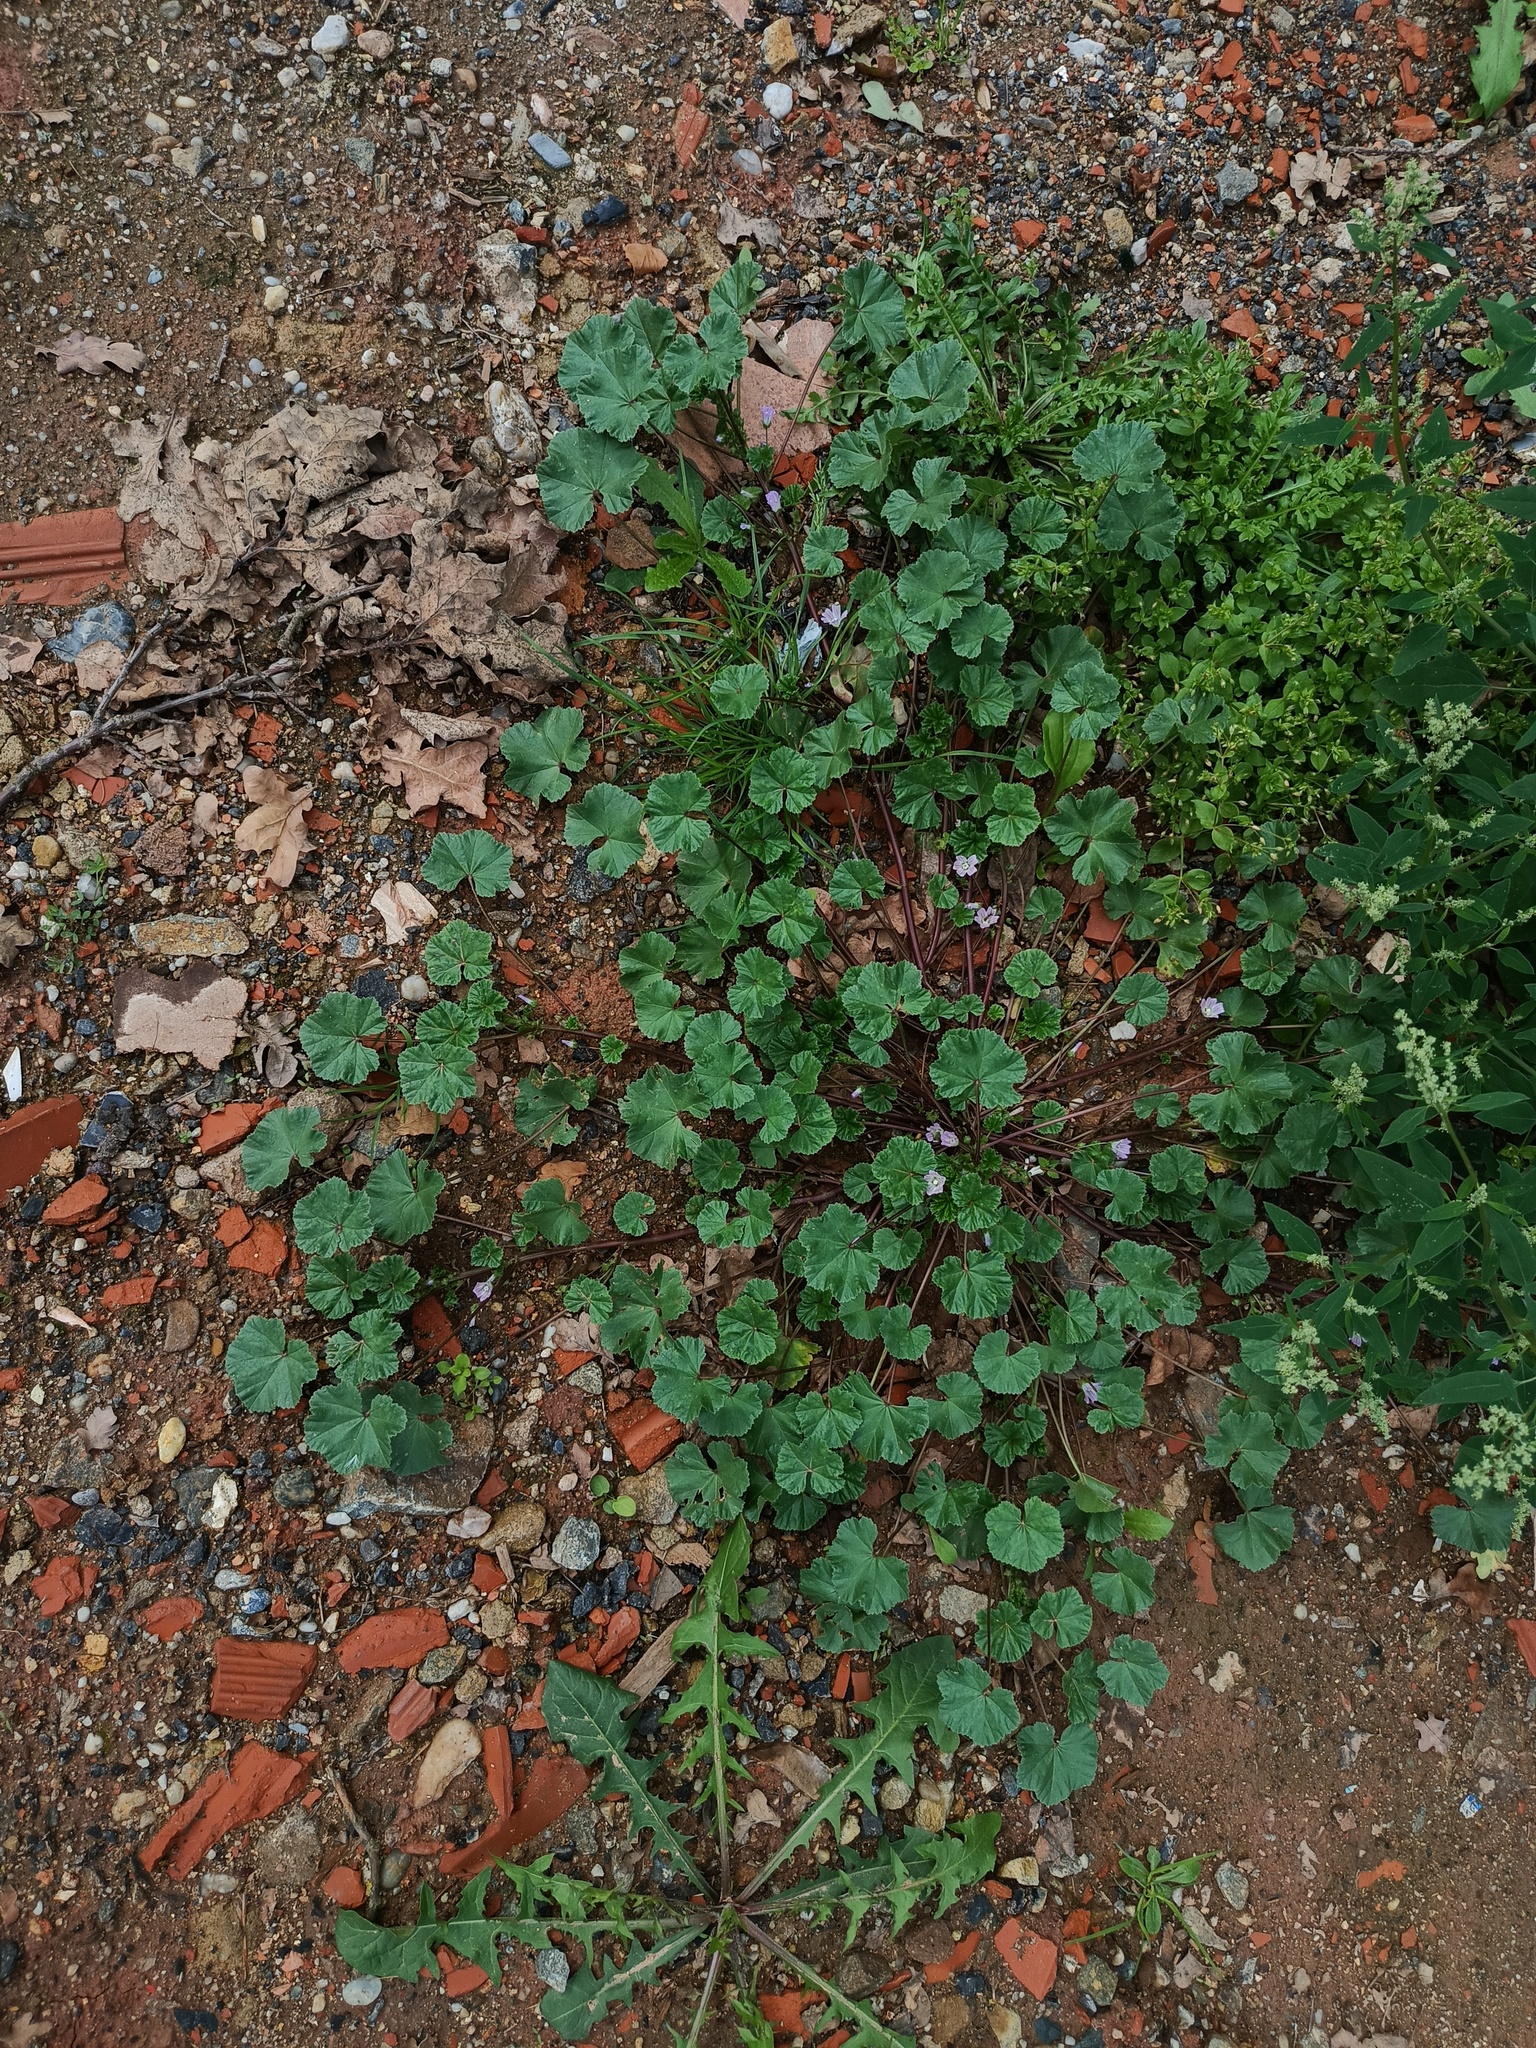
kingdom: Plantae
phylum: Tracheophyta
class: Magnoliopsida
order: Malvales
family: Malvaceae
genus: Malva
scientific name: Malva neglecta
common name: Common mallow
